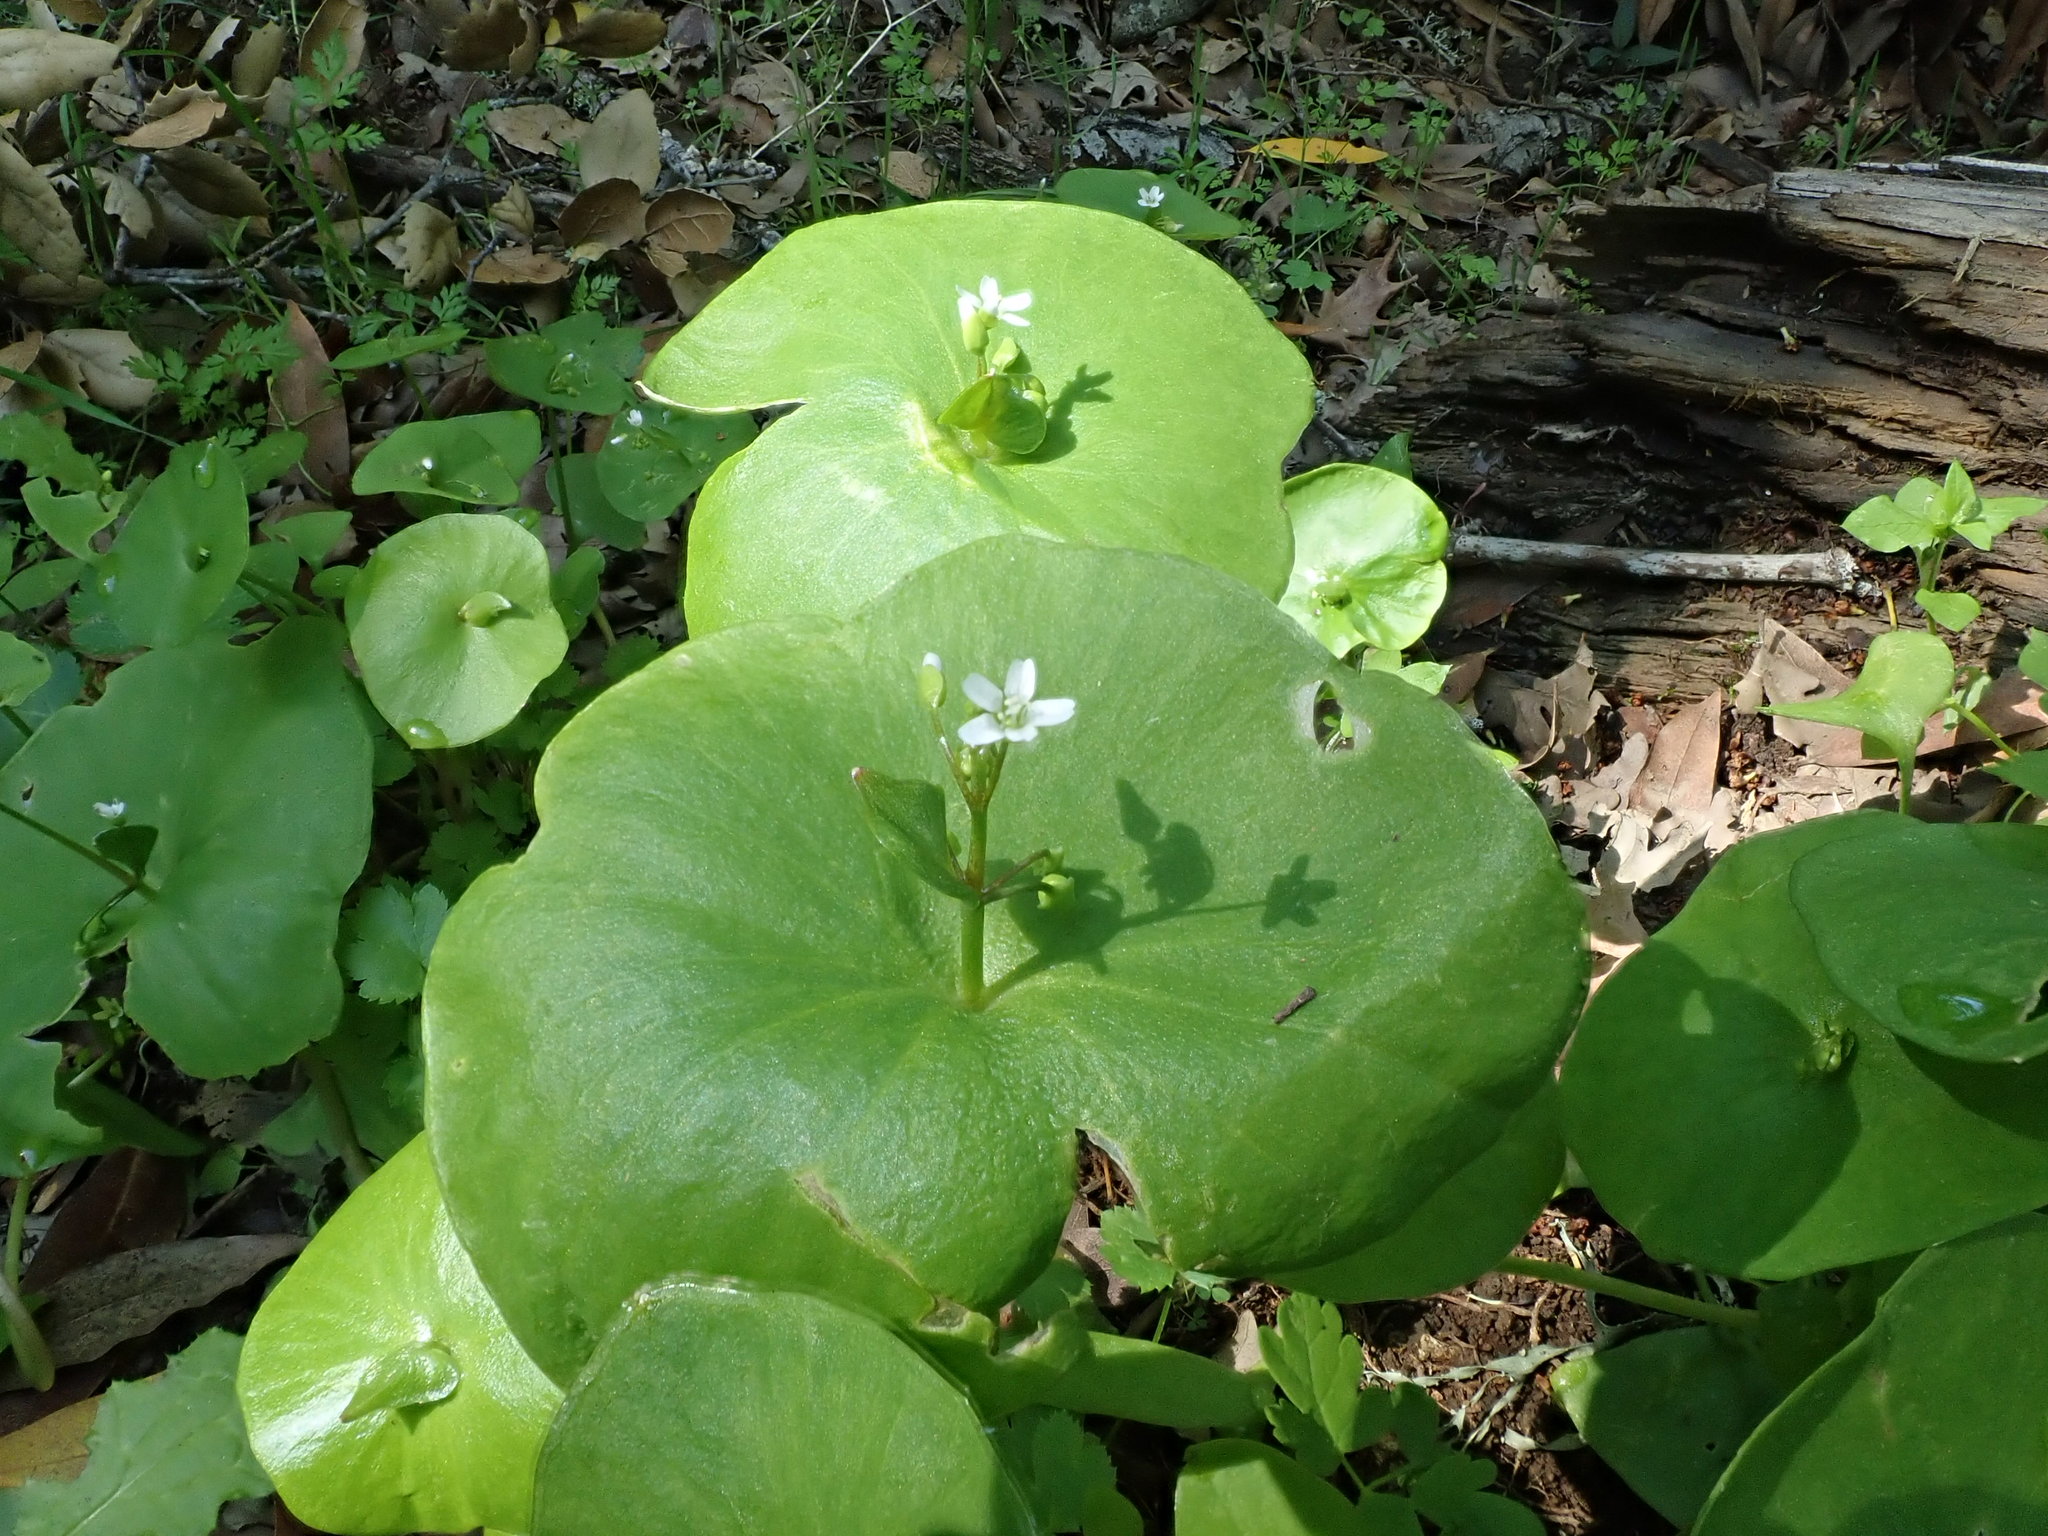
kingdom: Plantae
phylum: Tracheophyta
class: Magnoliopsida
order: Caryophyllales
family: Montiaceae
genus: Claytonia
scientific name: Claytonia perfoliata
